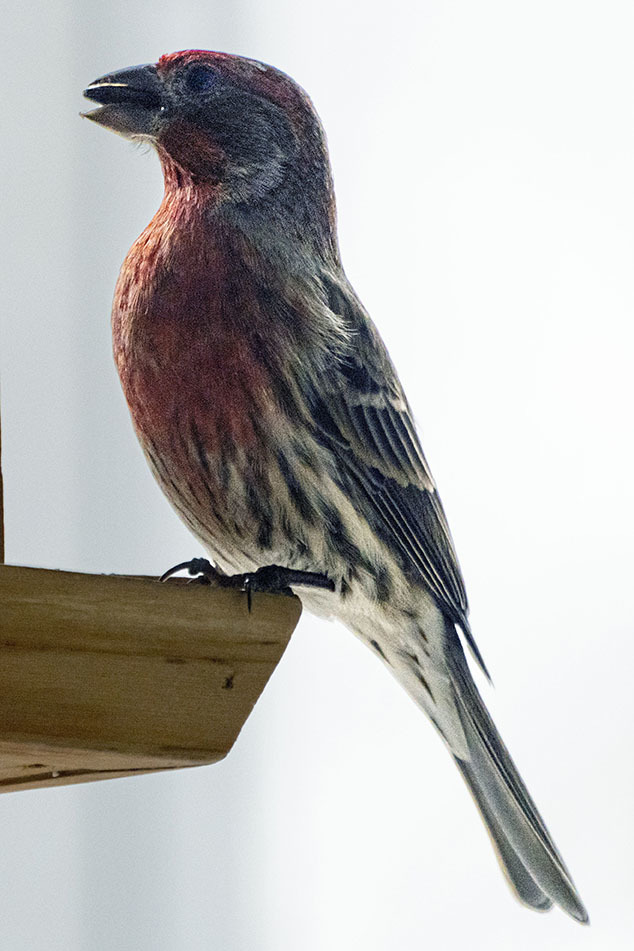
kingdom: Animalia
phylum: Chordata
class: Aves
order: Passeriformes
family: Fringillidae
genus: Haemorhous
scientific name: Haemorhous mexicanus
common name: House finch
